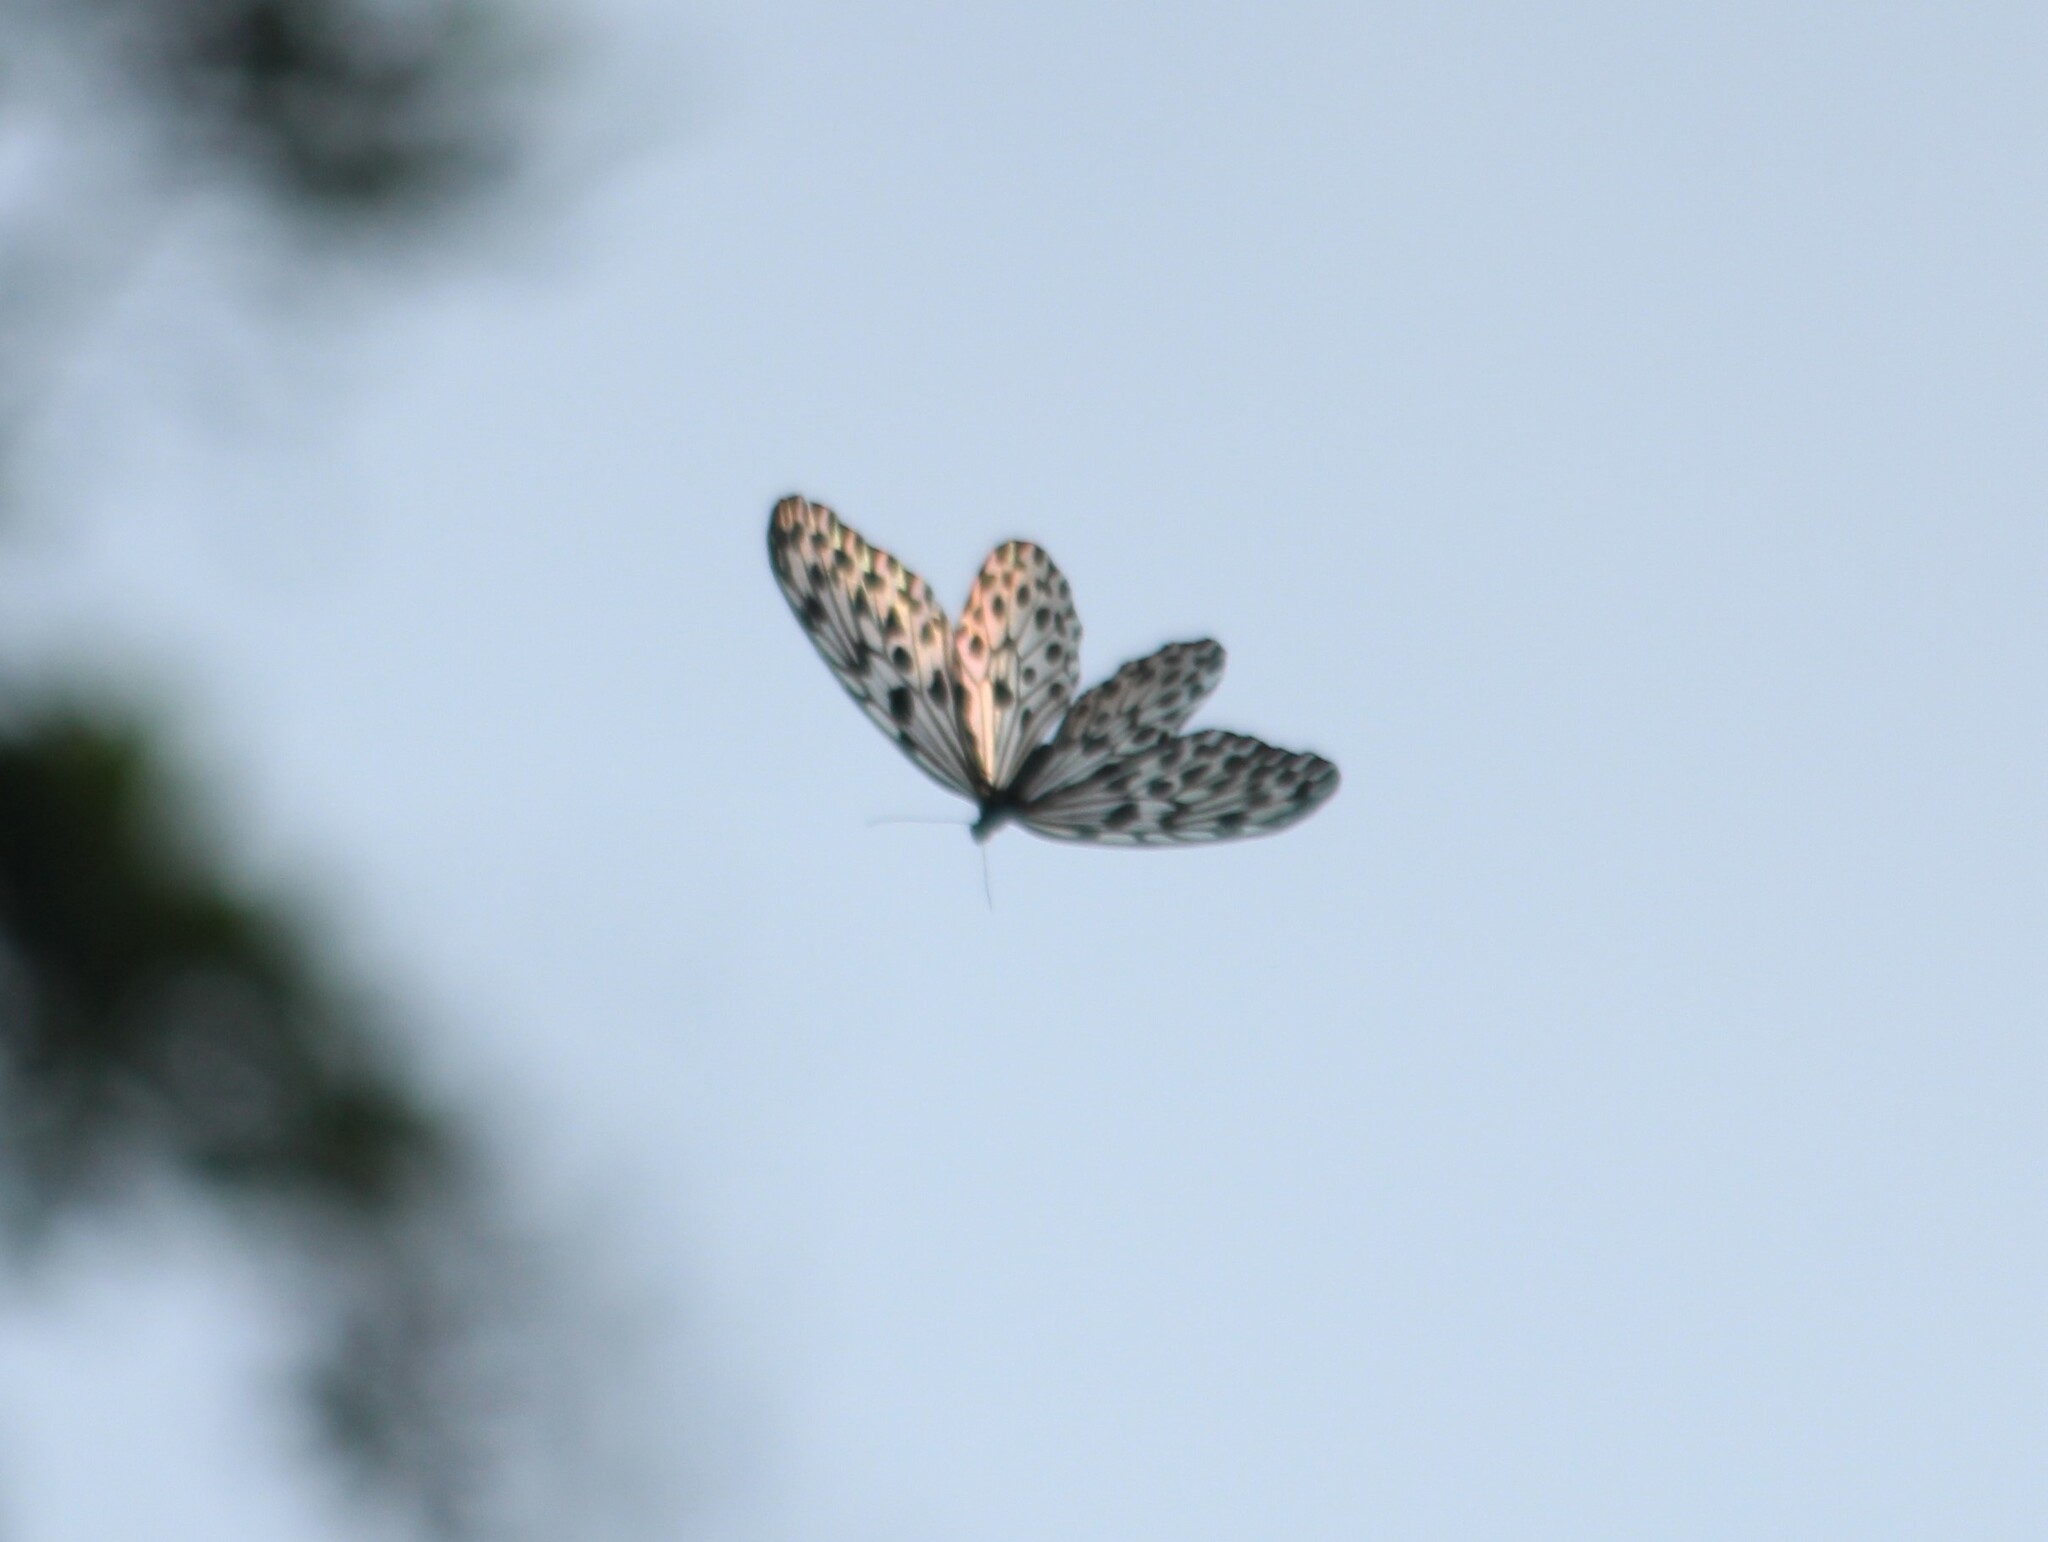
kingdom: Animalia
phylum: Arthropoda
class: Insecta
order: Lepidoptera
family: Nymphalidae
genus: Idea
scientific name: Idea malabarica
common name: Malabar tree-nymph
